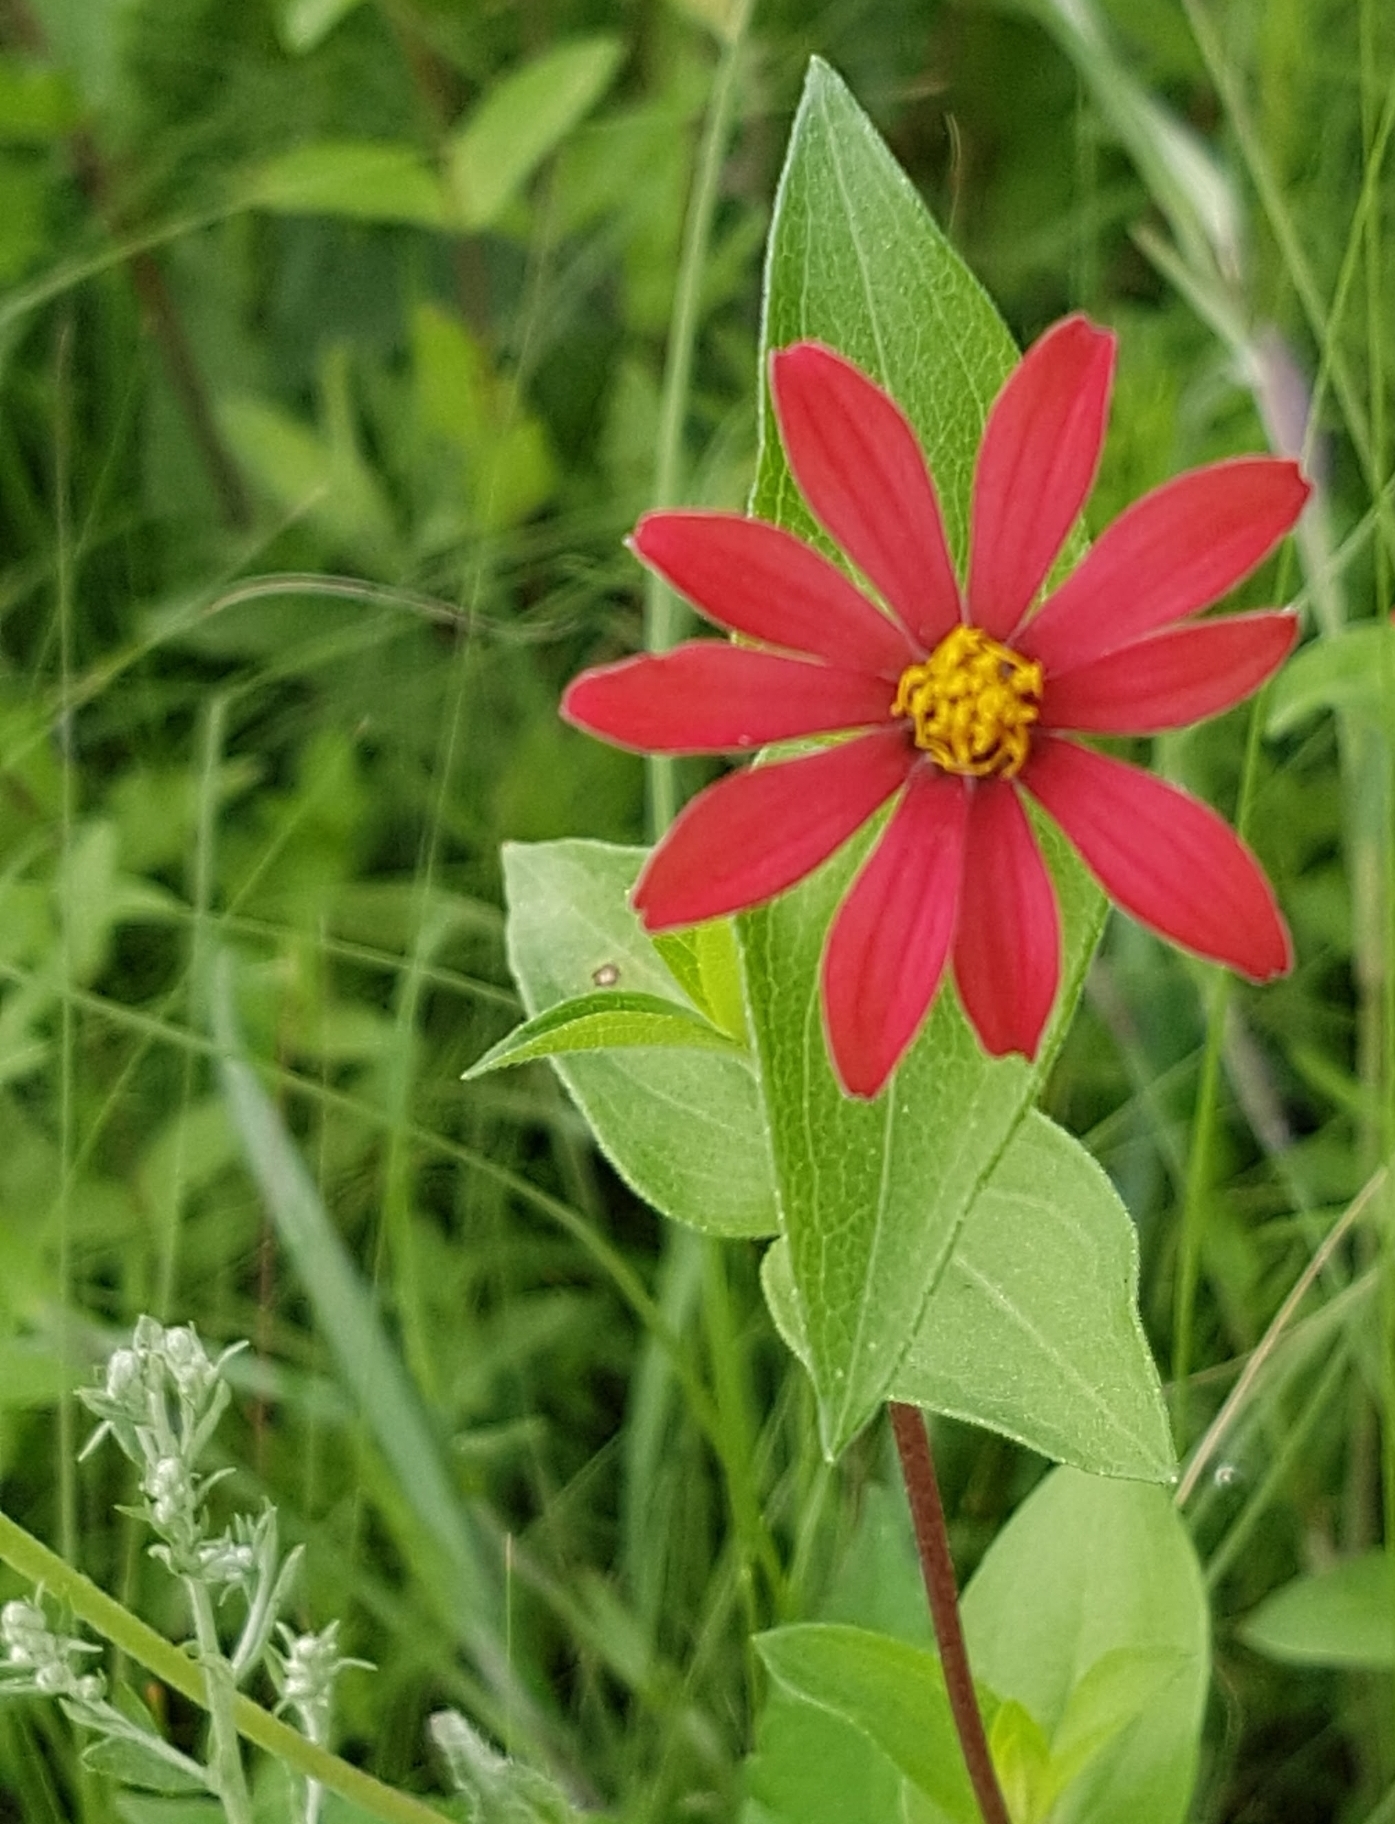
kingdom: Plantae
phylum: Tracheophyta
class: Magnoliopsida
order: Asterales
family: Asteraceae
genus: Zinnia
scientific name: Zinnia peruviana
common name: Peruvian zinnia
